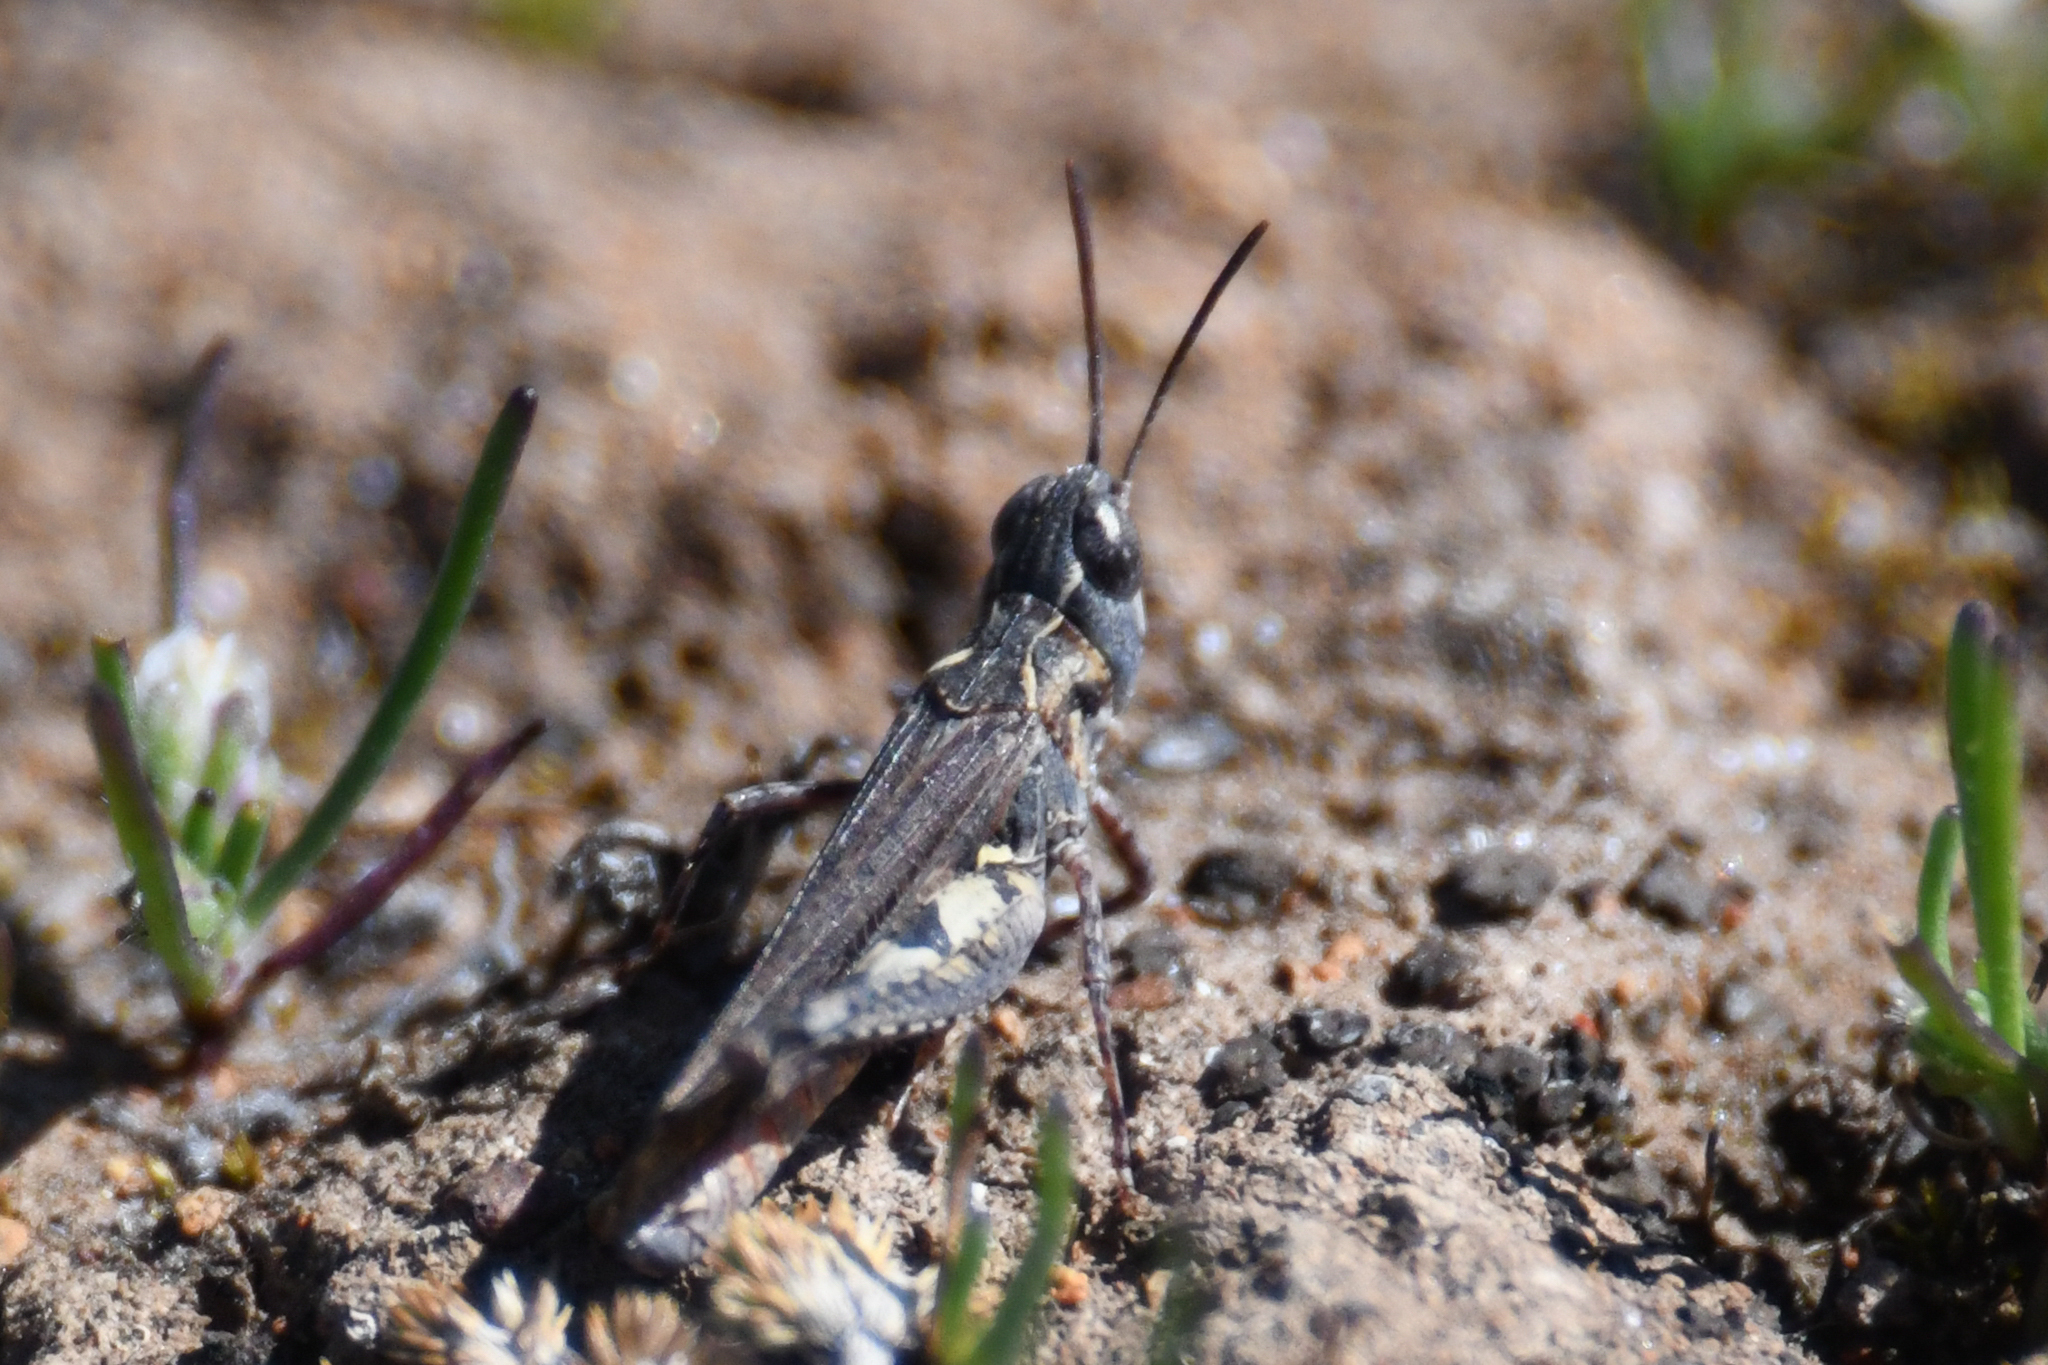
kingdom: Animalia
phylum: Arthropoda
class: Insecta
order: Orthoptera
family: Acrididae
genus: Psoloessa
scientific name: Psoloessa texana
